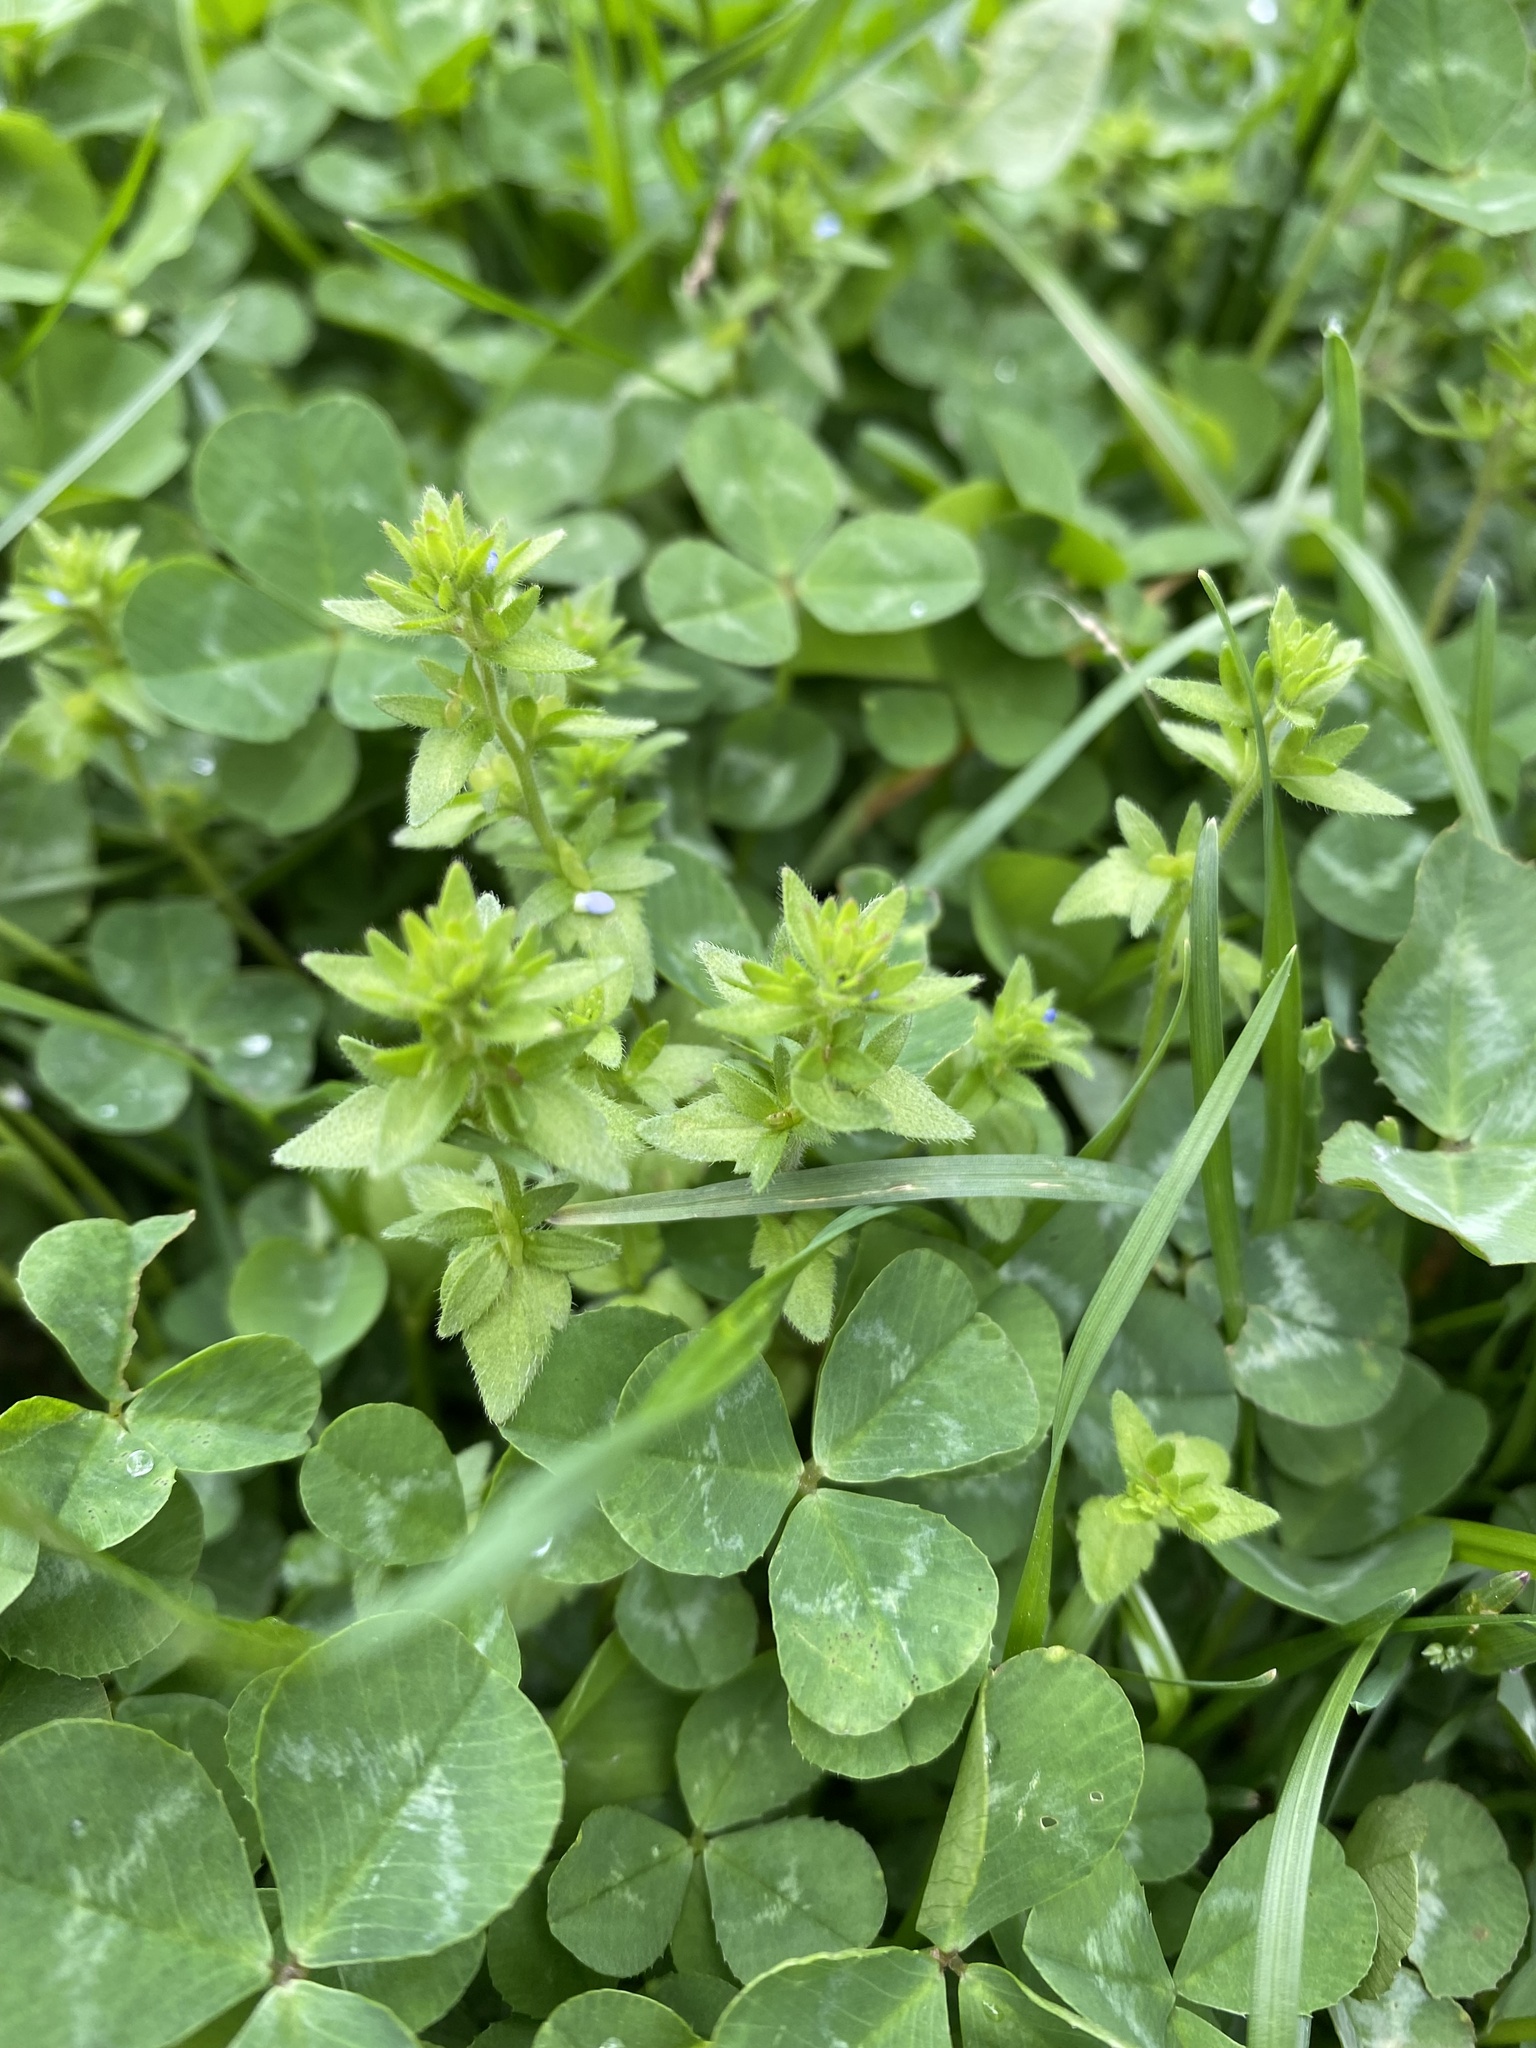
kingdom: Plantae
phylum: Tracheophyta
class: Magnoliopsida
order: Lamiales
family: Plantaginaceae
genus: Veronica
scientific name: Veronica arvensis
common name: Corn speedwell
